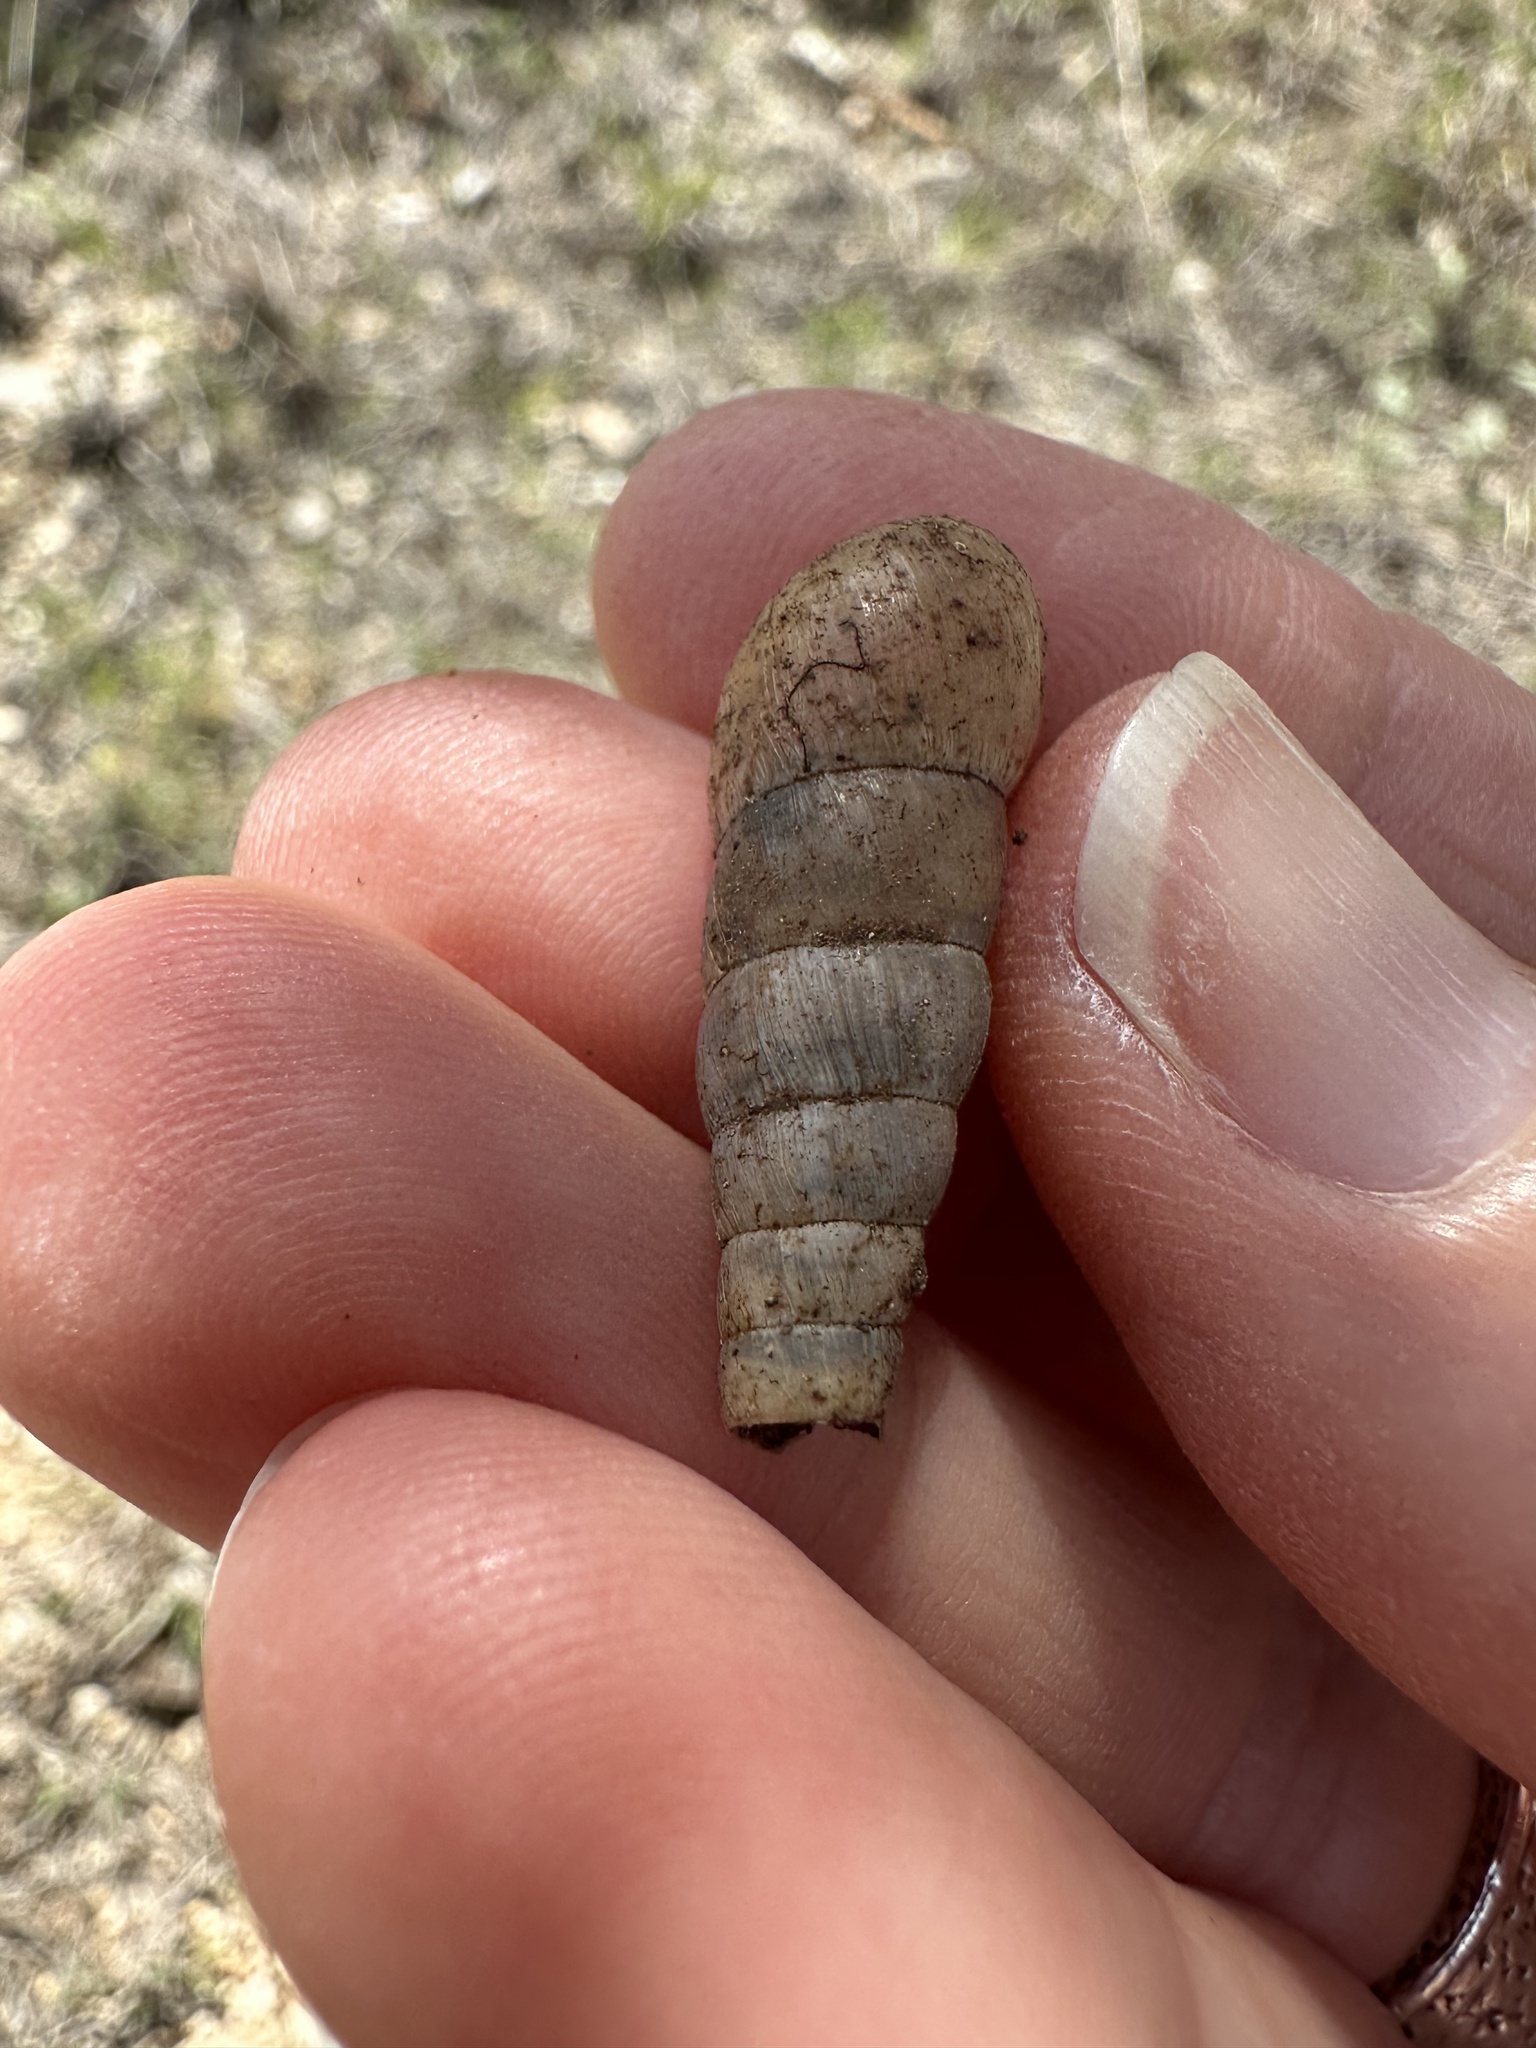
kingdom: Animalia
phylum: Mollusca
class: Gastropoda
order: Stylommatophora
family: Achatinidae
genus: Rumina
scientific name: Rumina decollata
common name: Decollate snail
